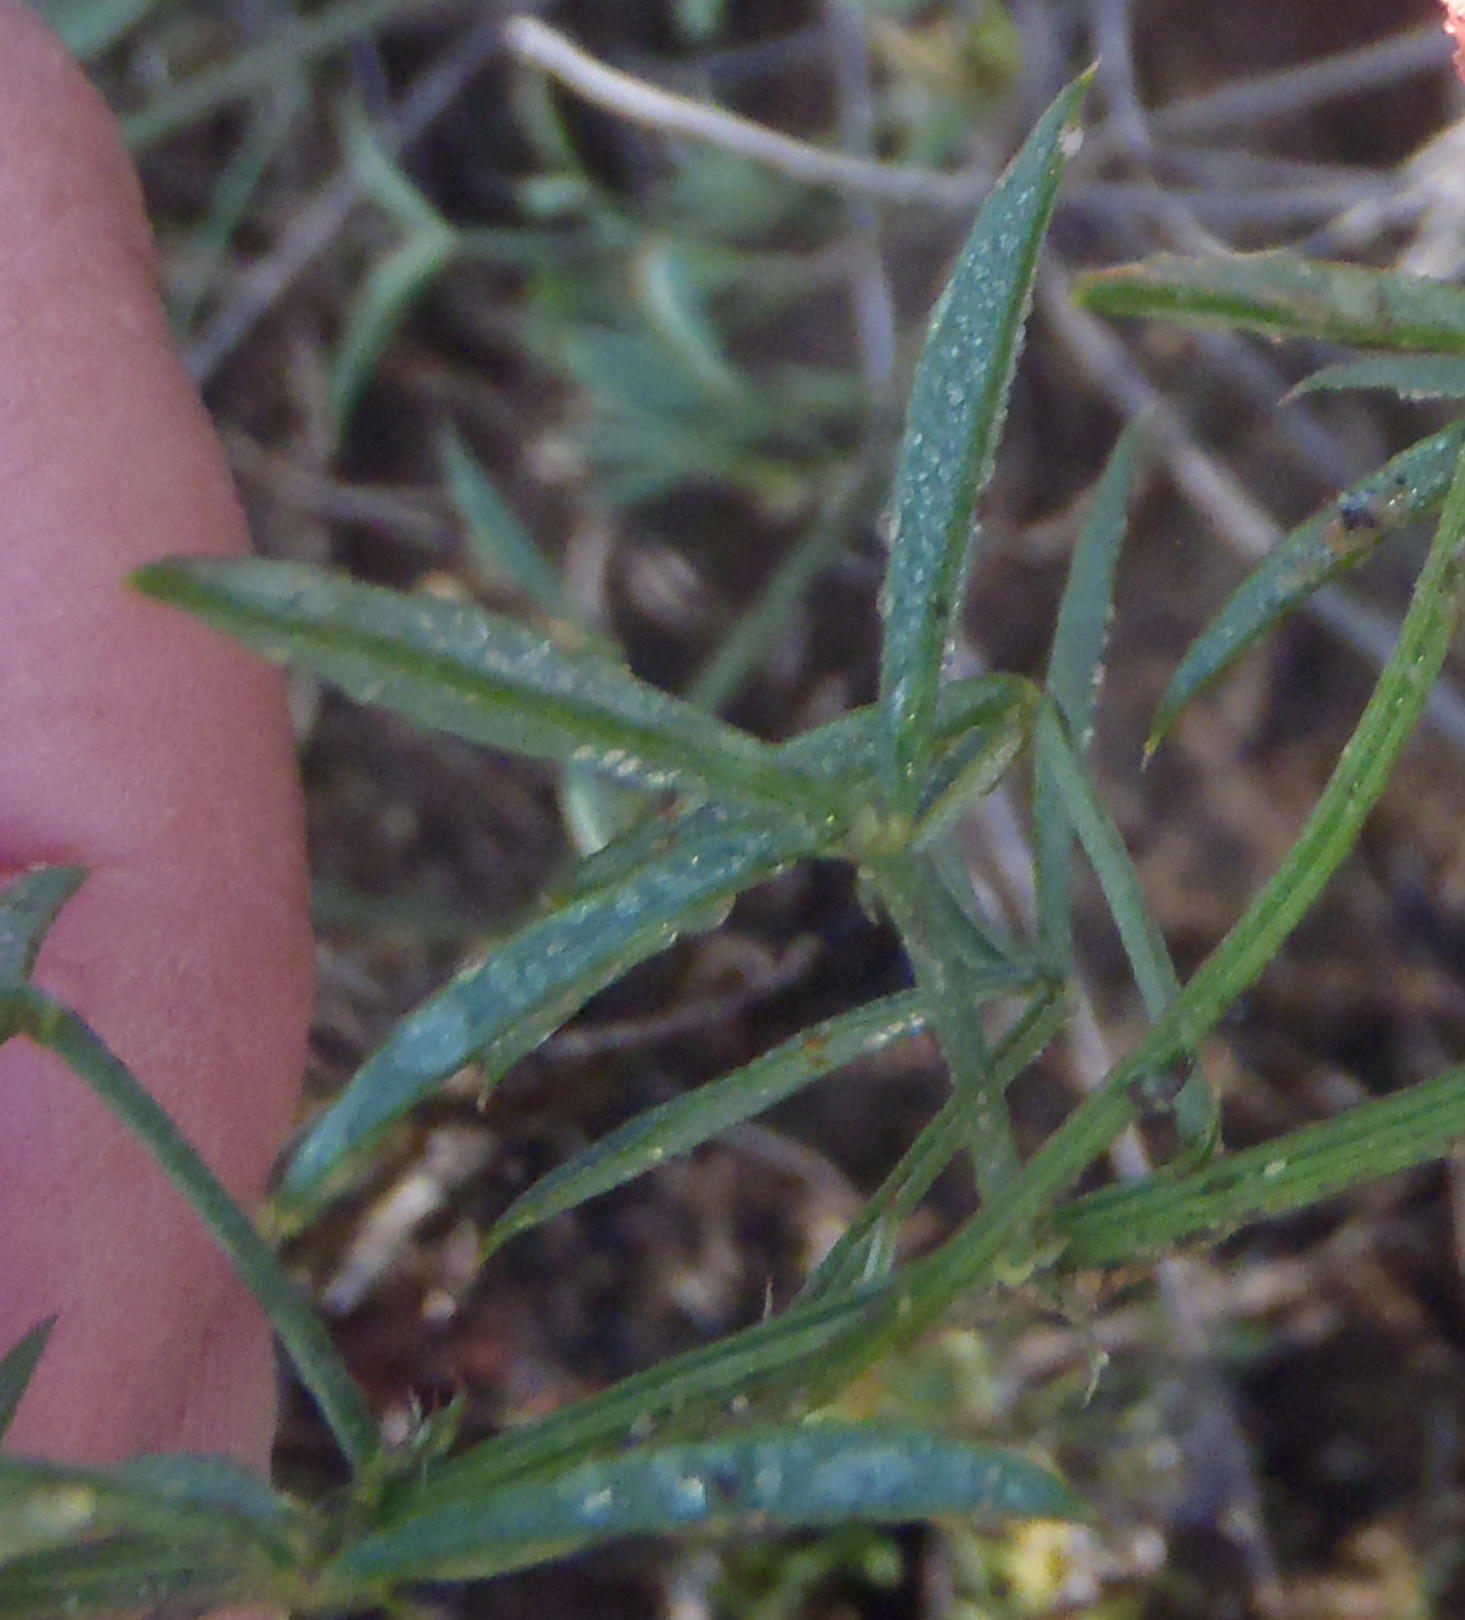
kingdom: Plantae
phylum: Tracheophyta
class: Magnoliopsida
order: Fabales
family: Fabaceae
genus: Indigofera
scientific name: Indigofera heterophylla
